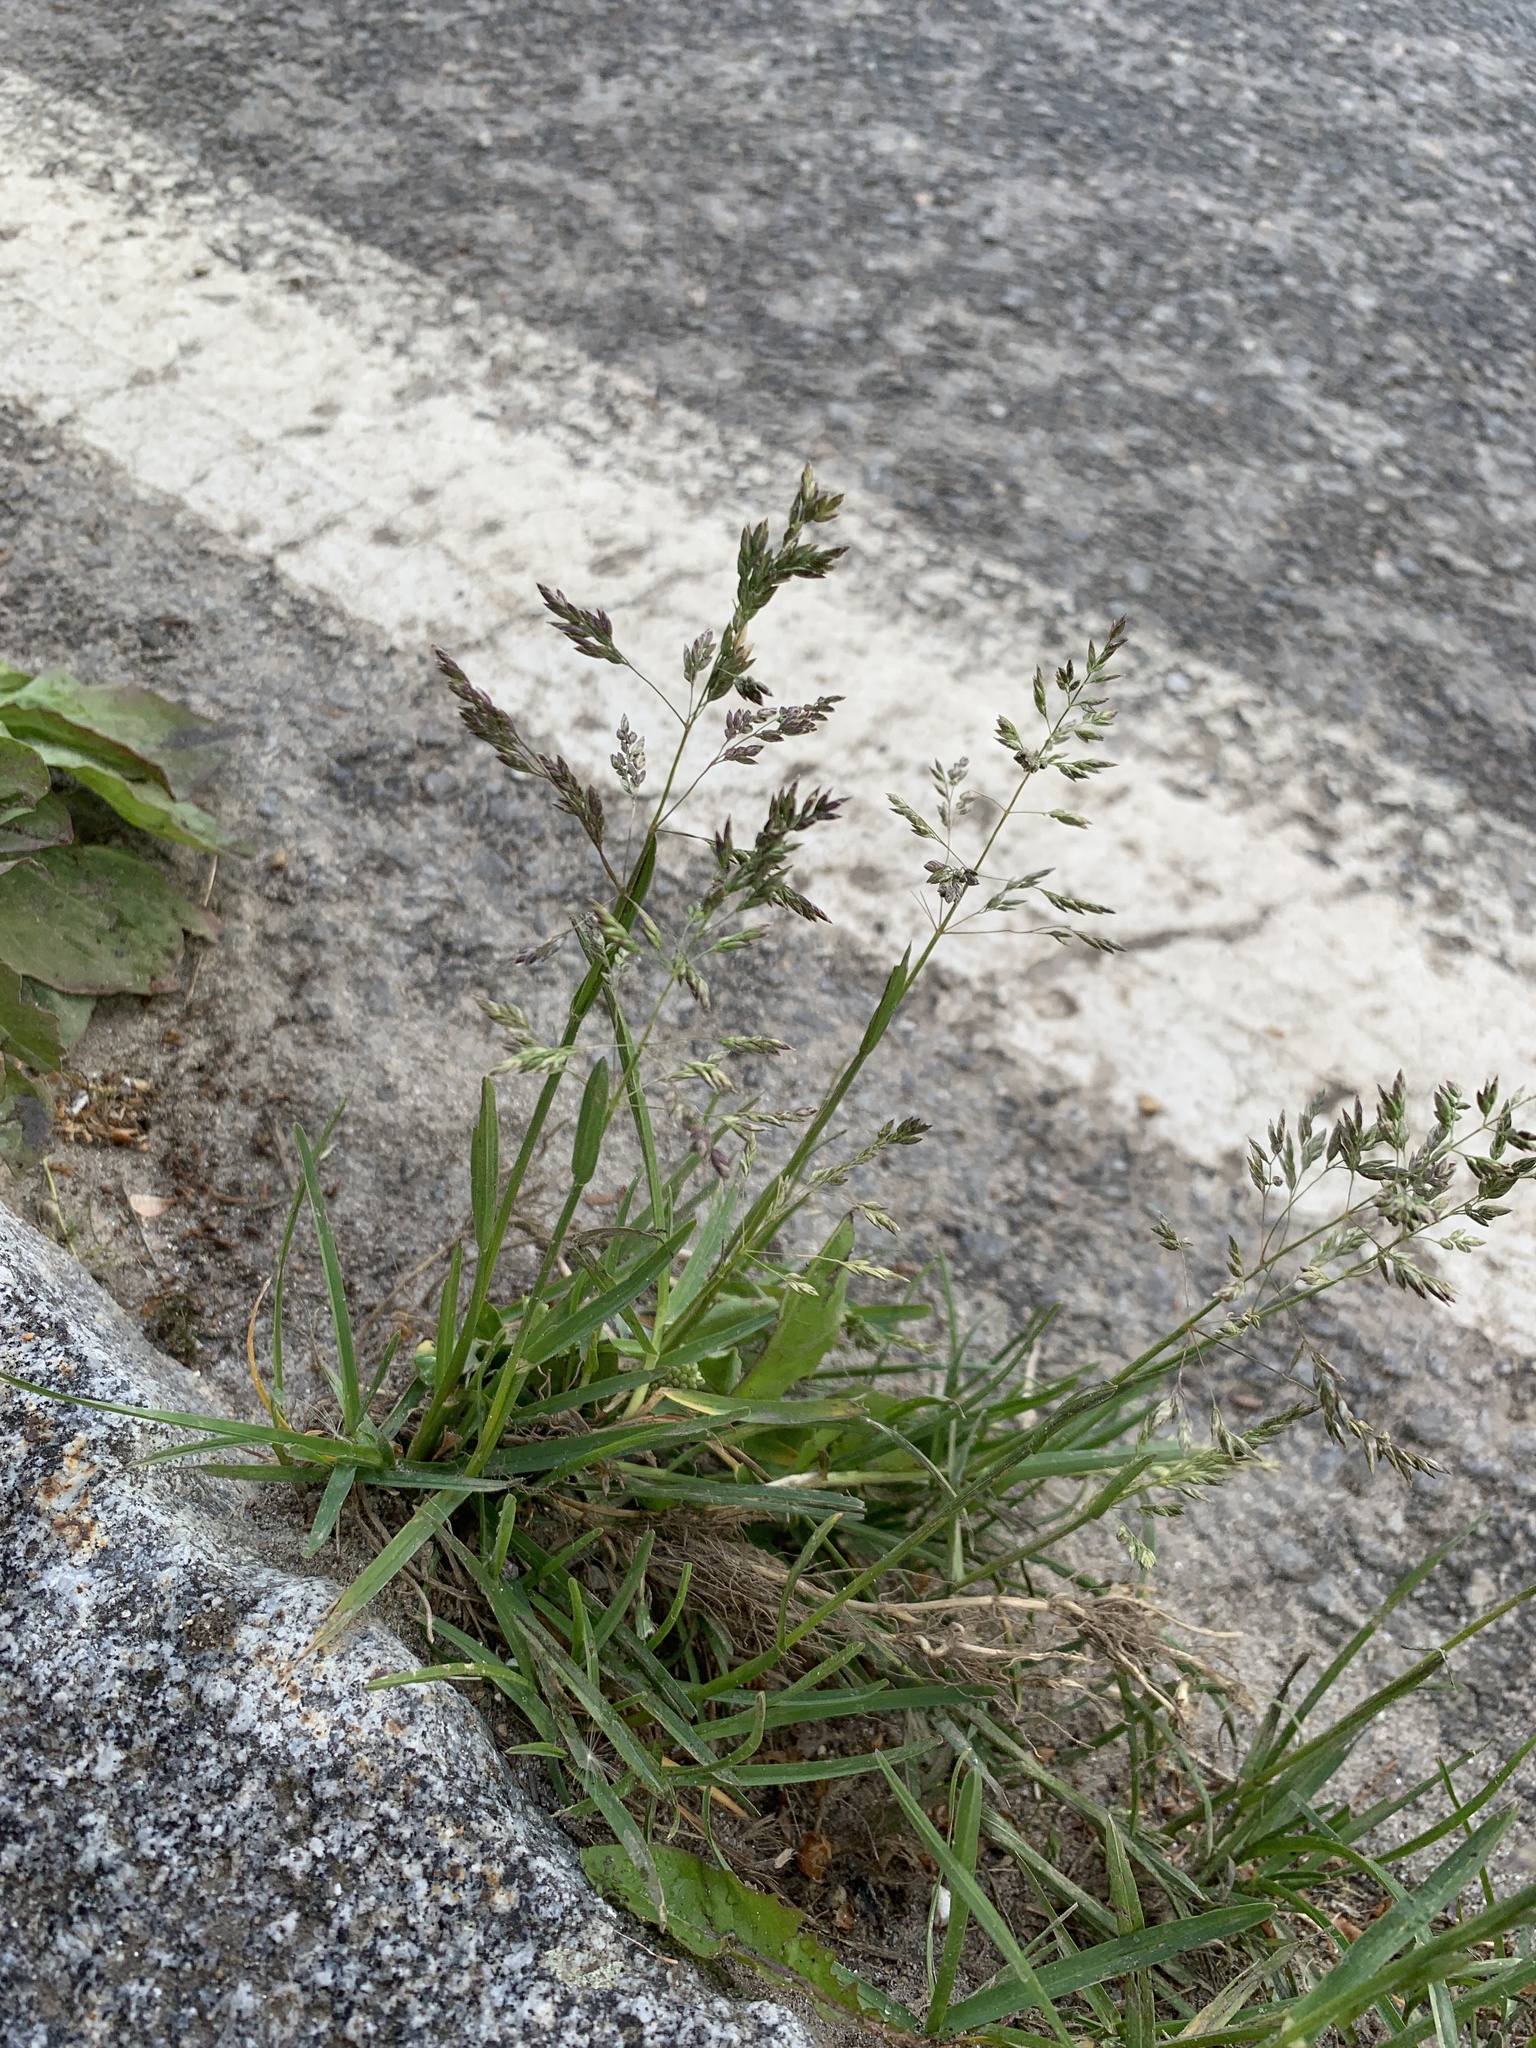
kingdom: Plantae
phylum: Tracheophyta
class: Liliopsida
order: Poales
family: Poaceae
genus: Poa
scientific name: Poa annua
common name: Annual bluegrass
